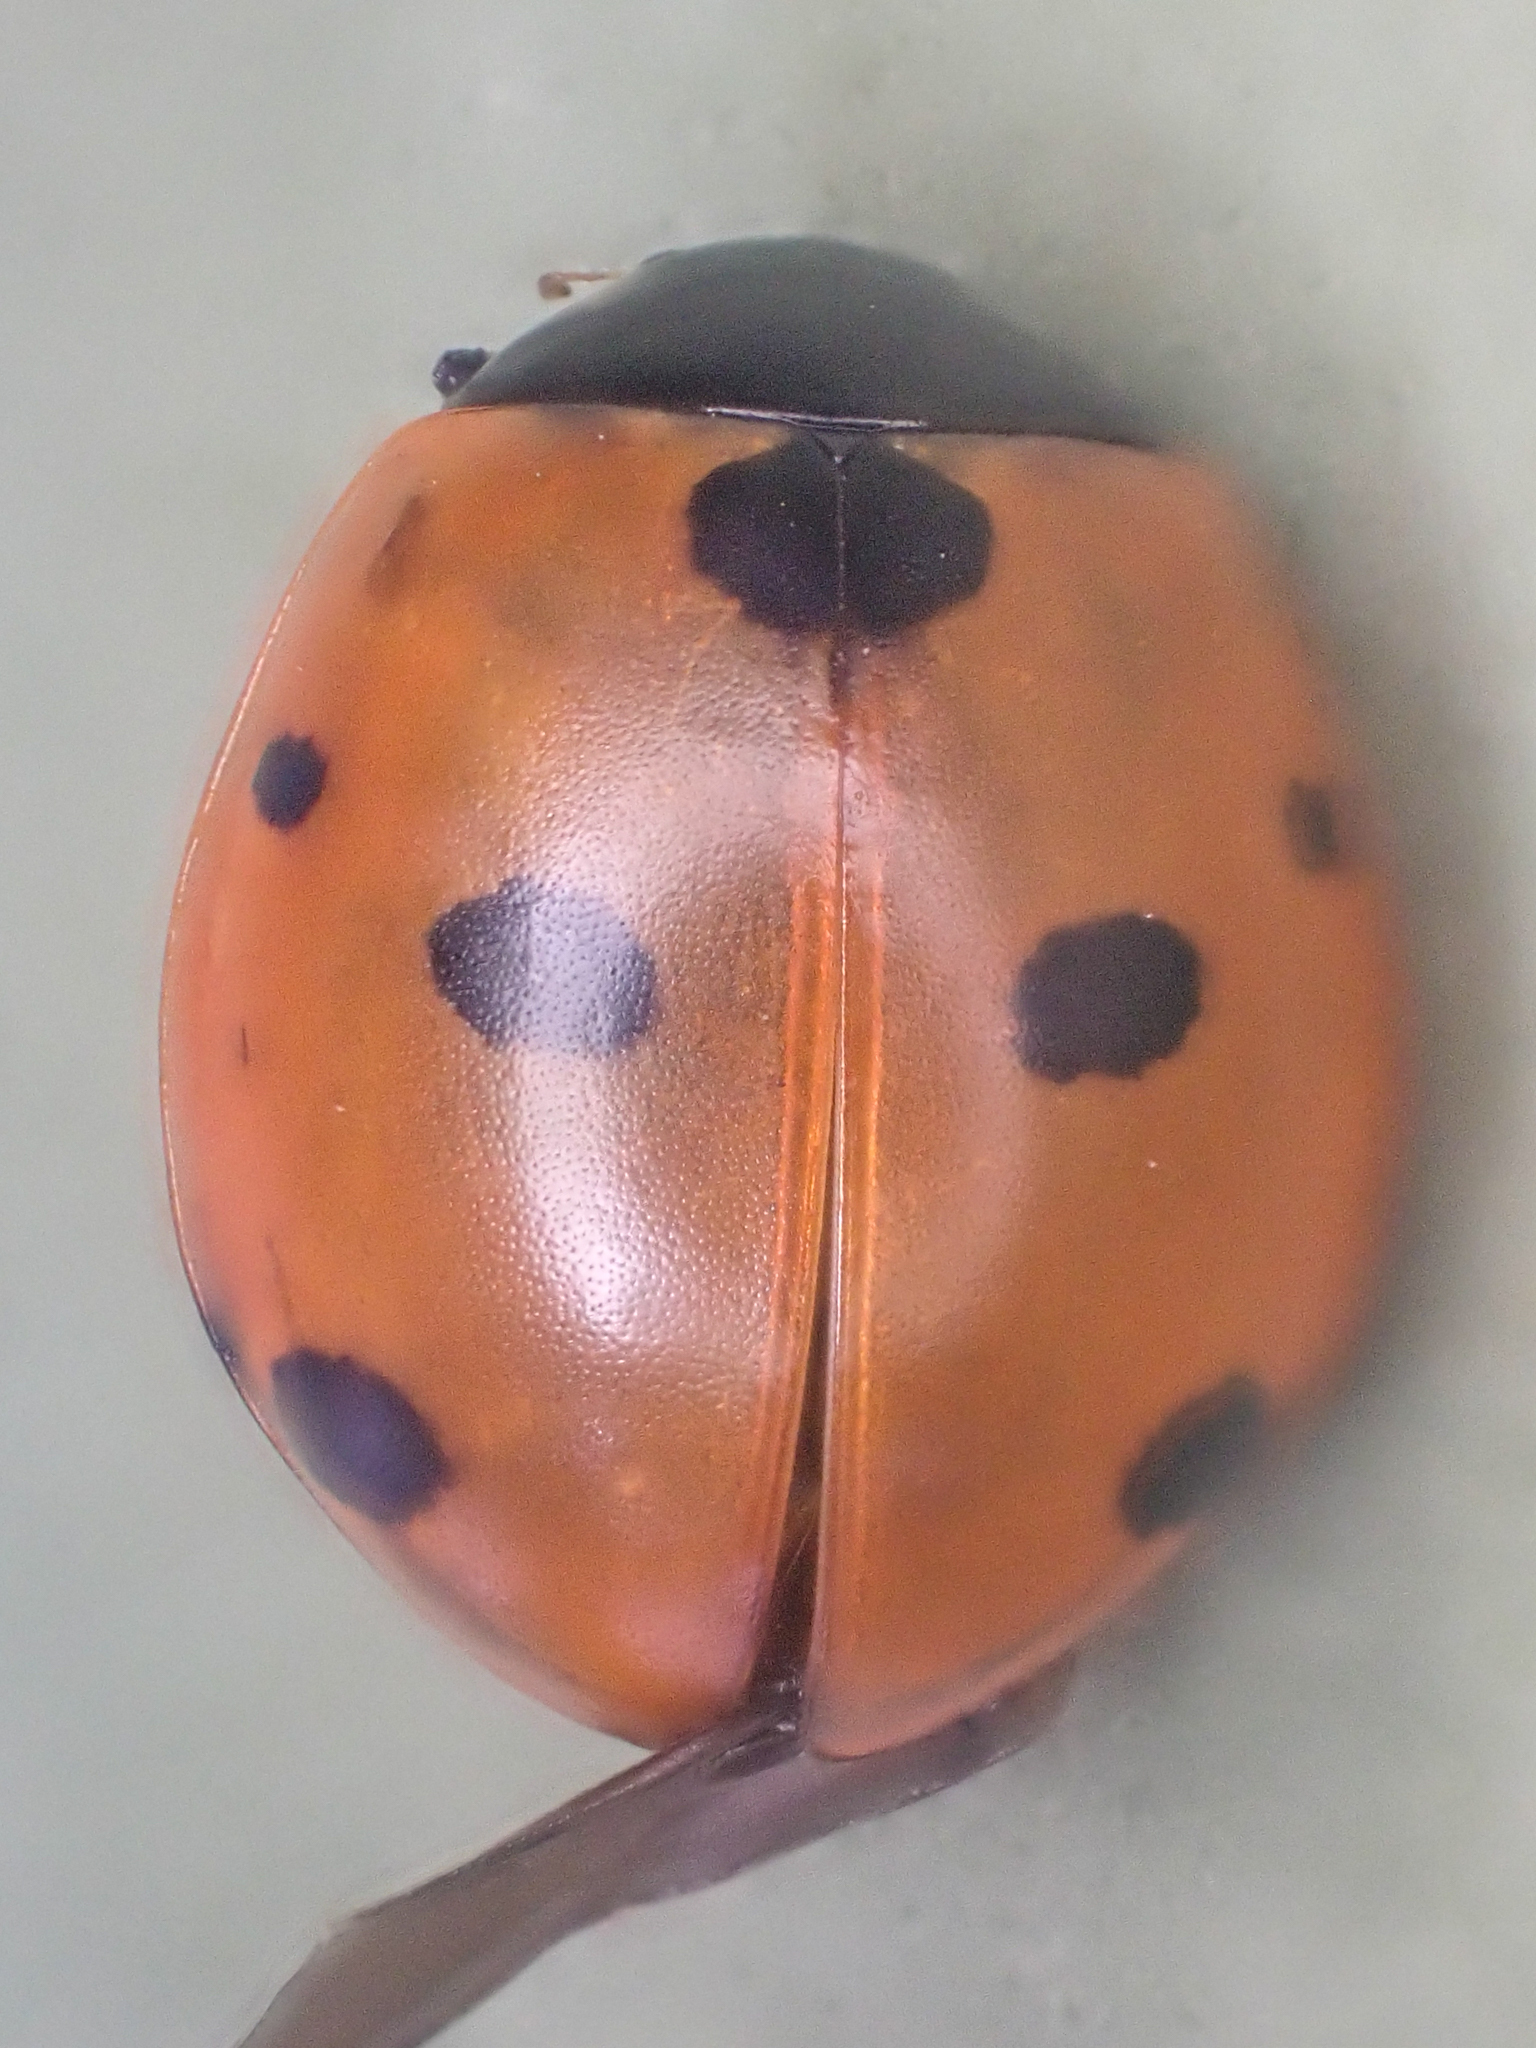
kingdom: Animalia
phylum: Arthropoda
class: Insecta
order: Coleoptera
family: Coccinellidae
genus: Coccinella
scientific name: Coccinella septempunctata
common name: Sevenspotted lady beetle
